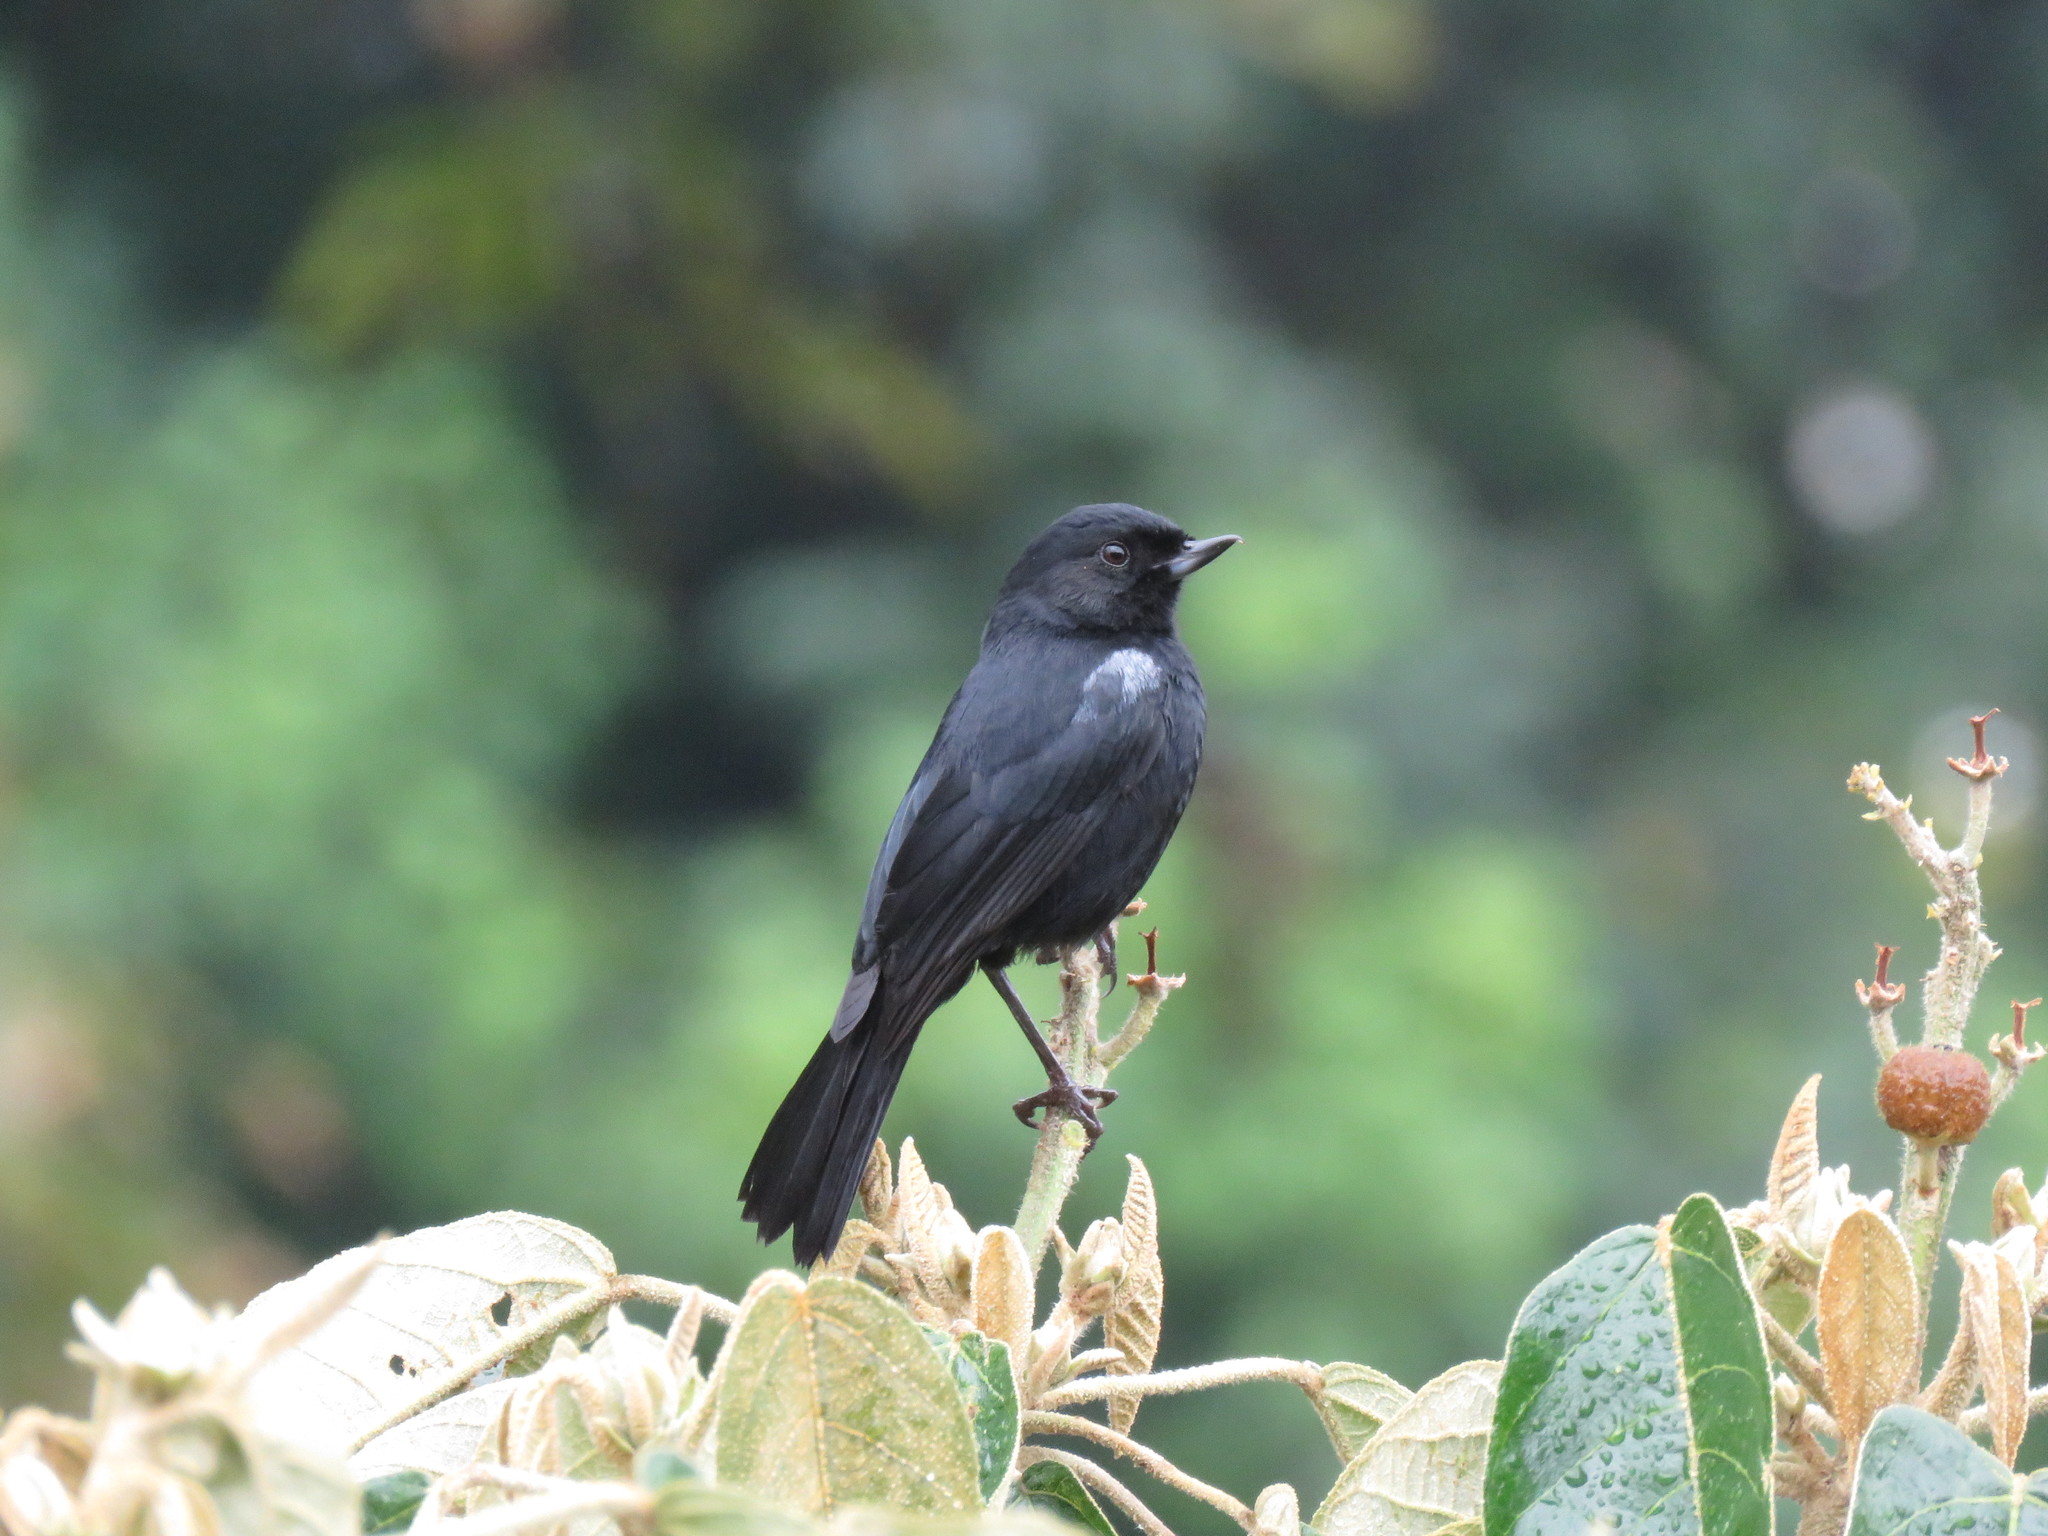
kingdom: Animalia
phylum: Chordata
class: Aves
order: Passeriformes
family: Thraupidae
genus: Diglossa
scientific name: Diglossa humeralis
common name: Black flowerpiercer
